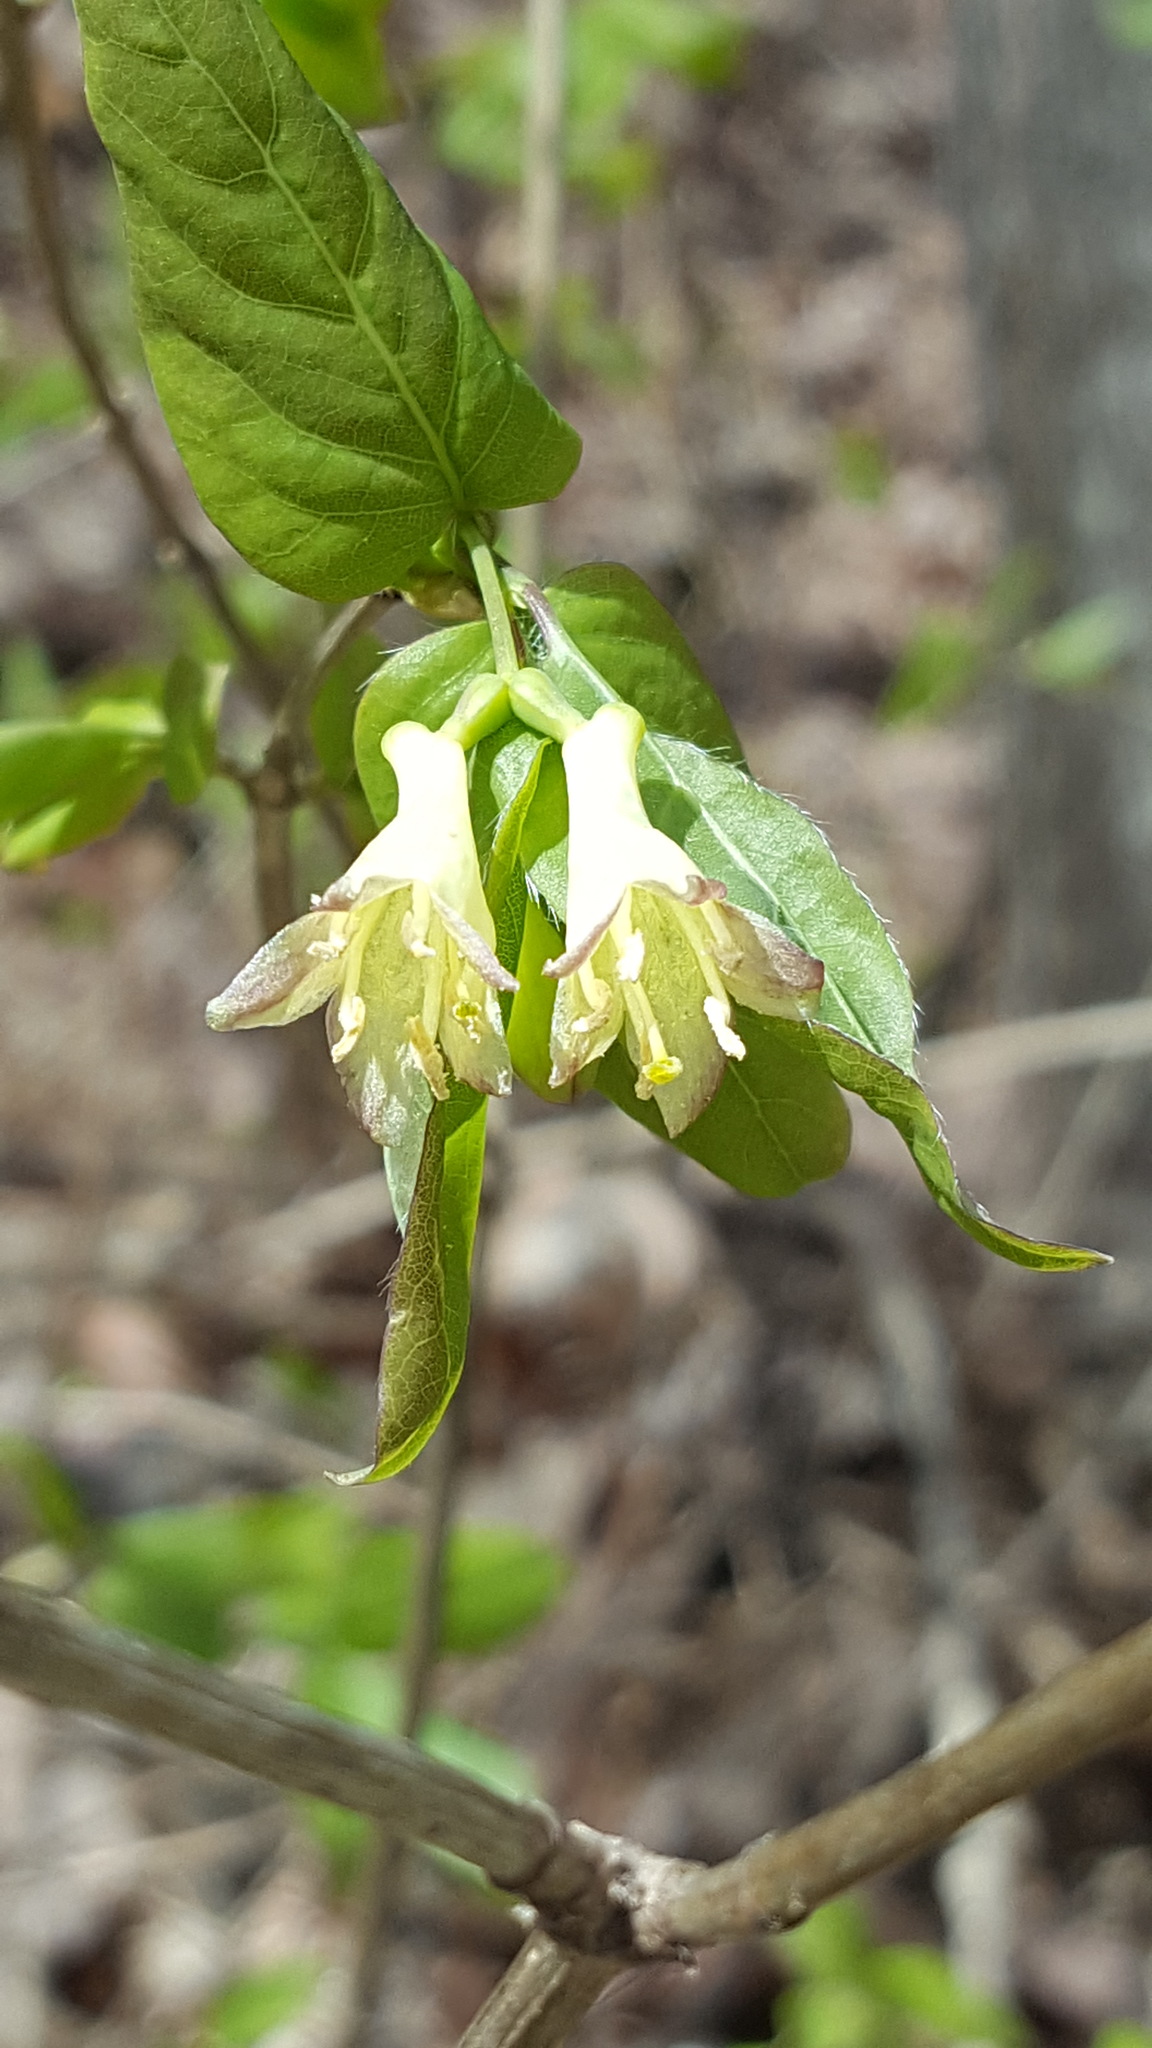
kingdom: Plantae
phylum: Tracheophyta
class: Magnoliopsida
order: Dipsacales
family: Caprifoliaceae
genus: Lonicera
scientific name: Lonicera canadensis
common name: American fly-honeysuckle
